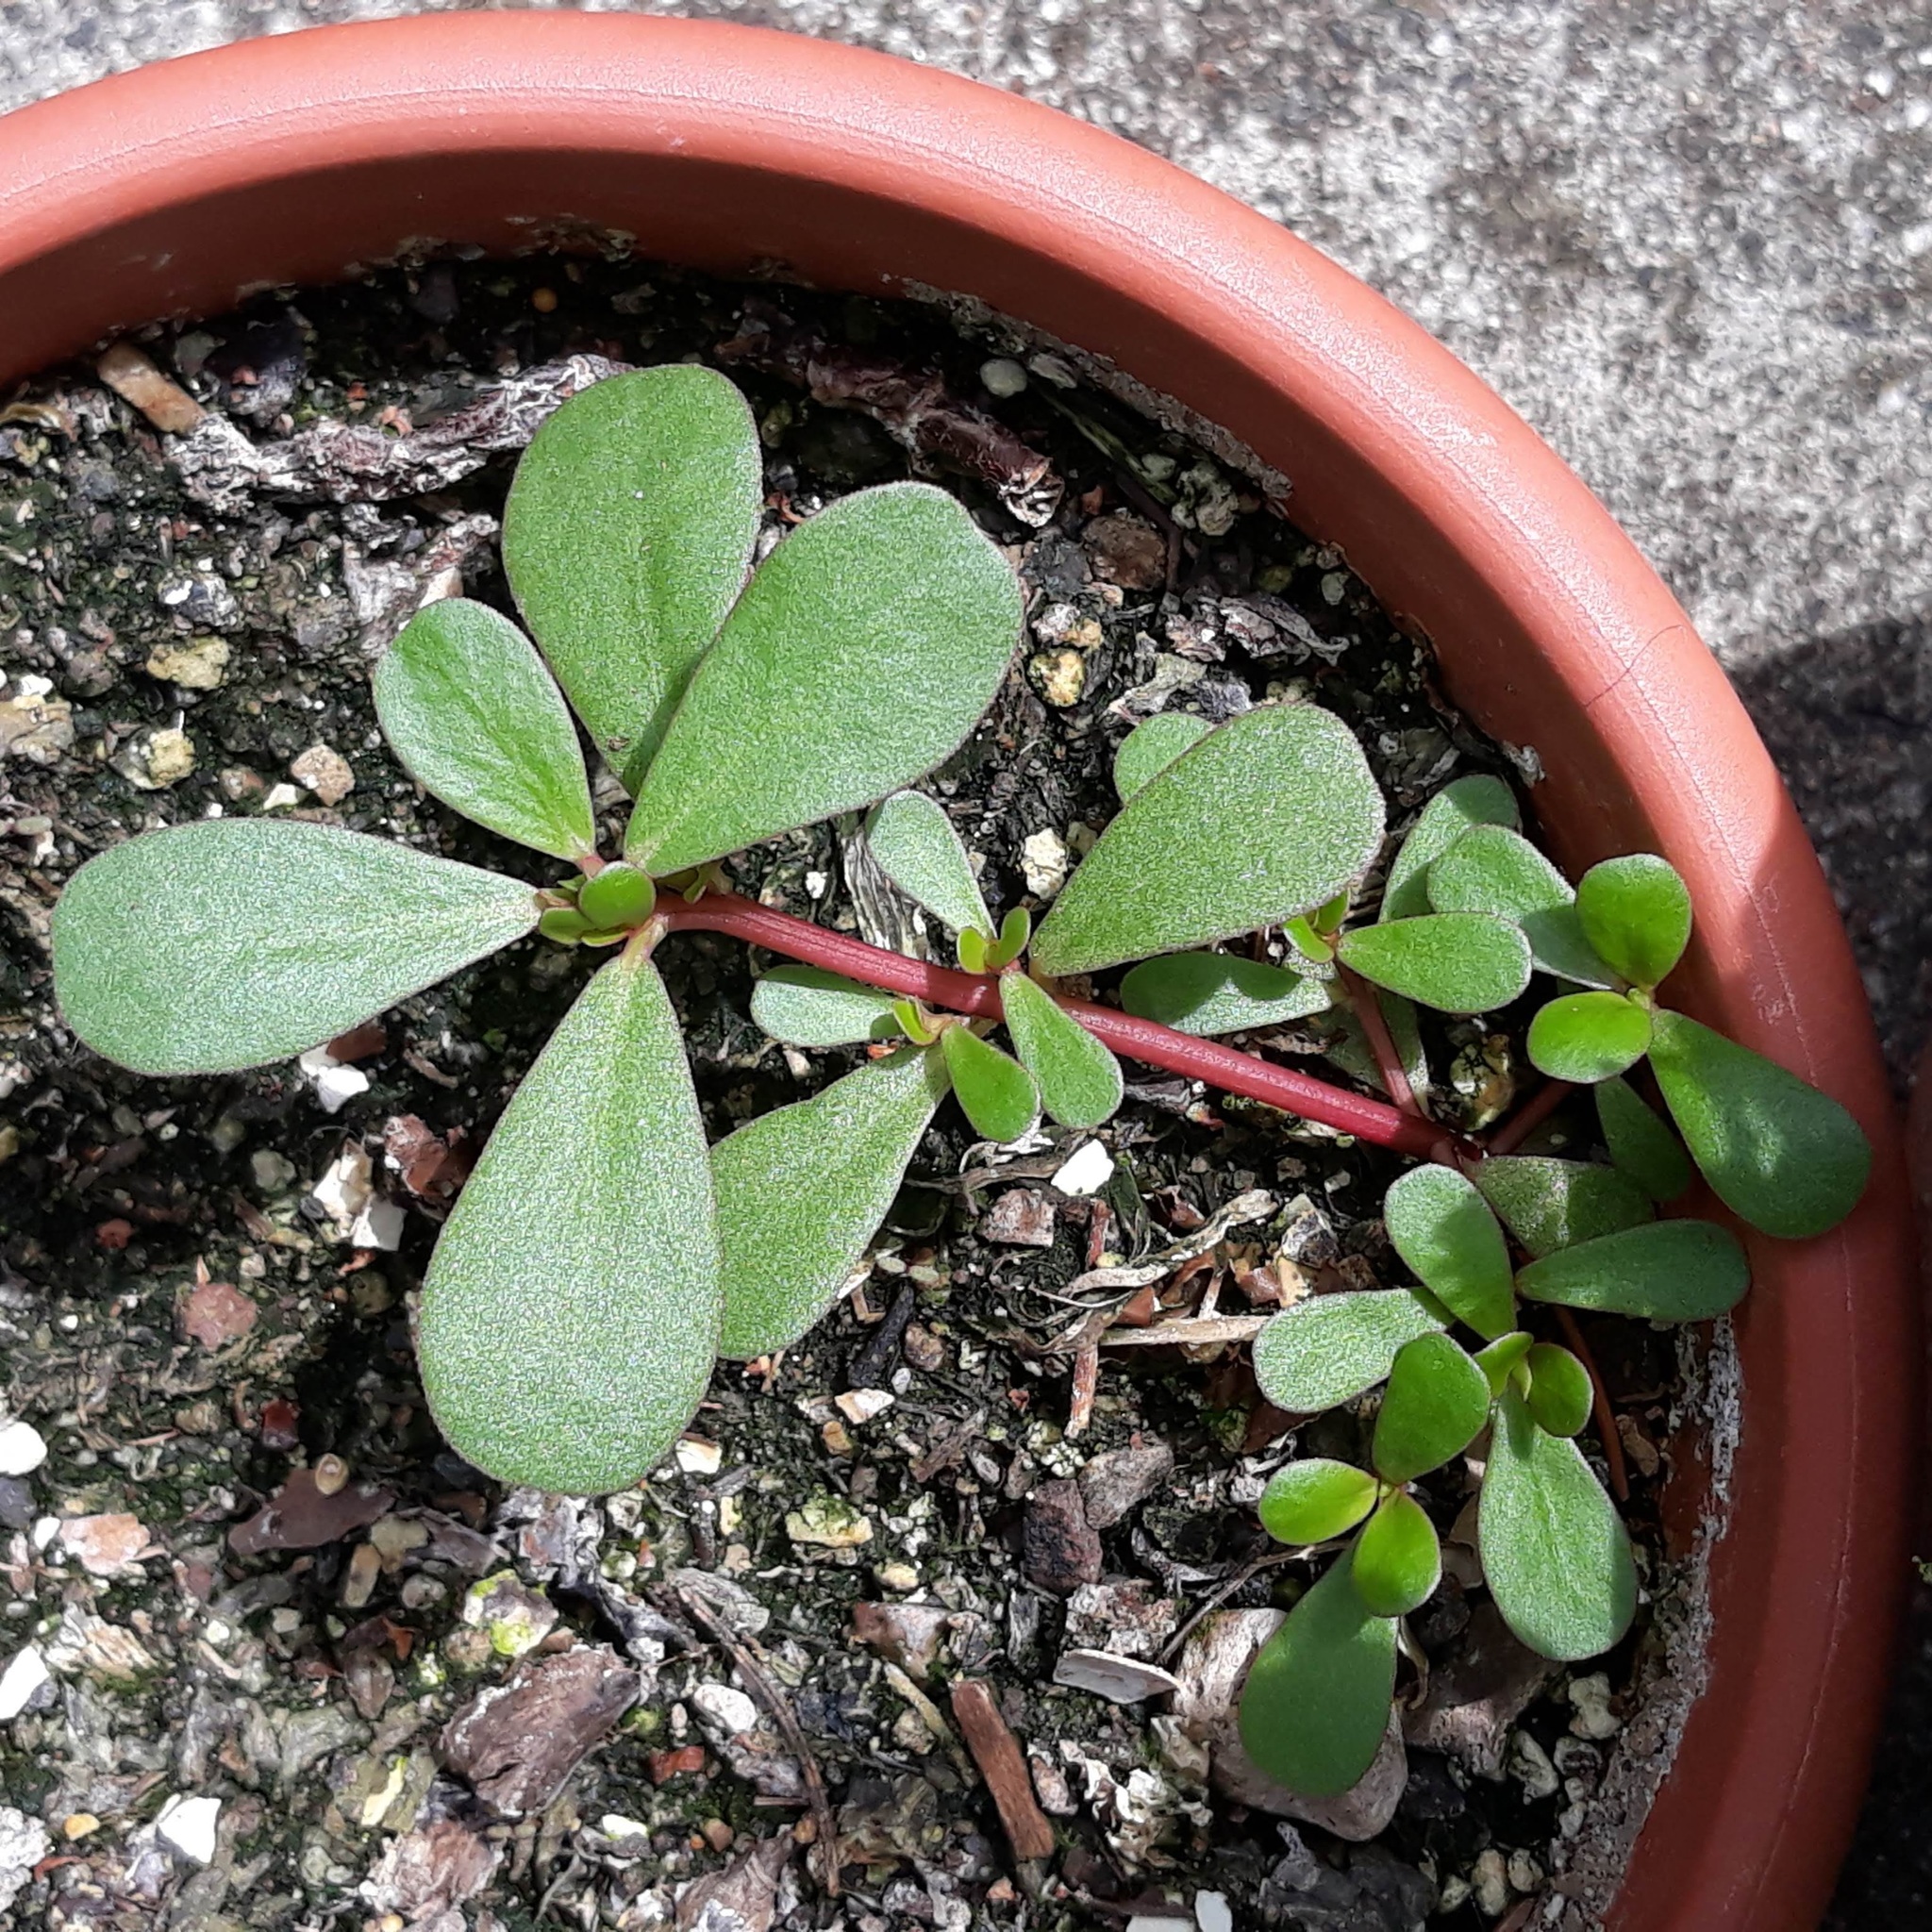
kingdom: Plantae
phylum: Tracheophyta
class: Magnoliopsida
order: Caryophyllales
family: Portulacaceae
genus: Portulaca
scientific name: Portulaca oleracea
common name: Common purslane
